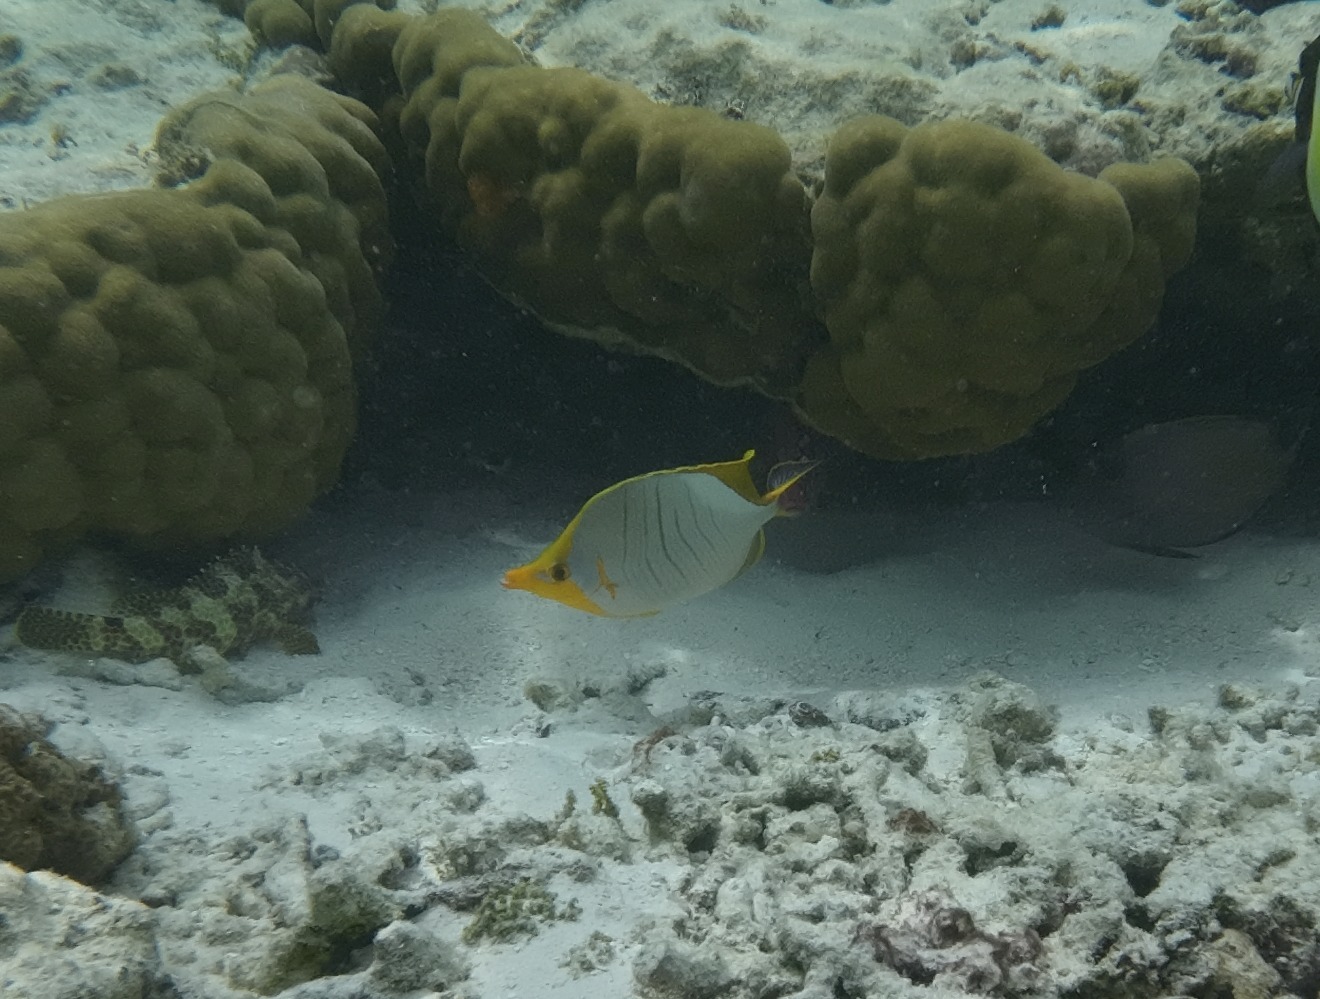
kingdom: Animalia
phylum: Chordata
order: Perciformes
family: Chaetodontidae
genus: Chaetodon
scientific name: Chaetodon xanthocephalus
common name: Yellowhead butterflyfish
